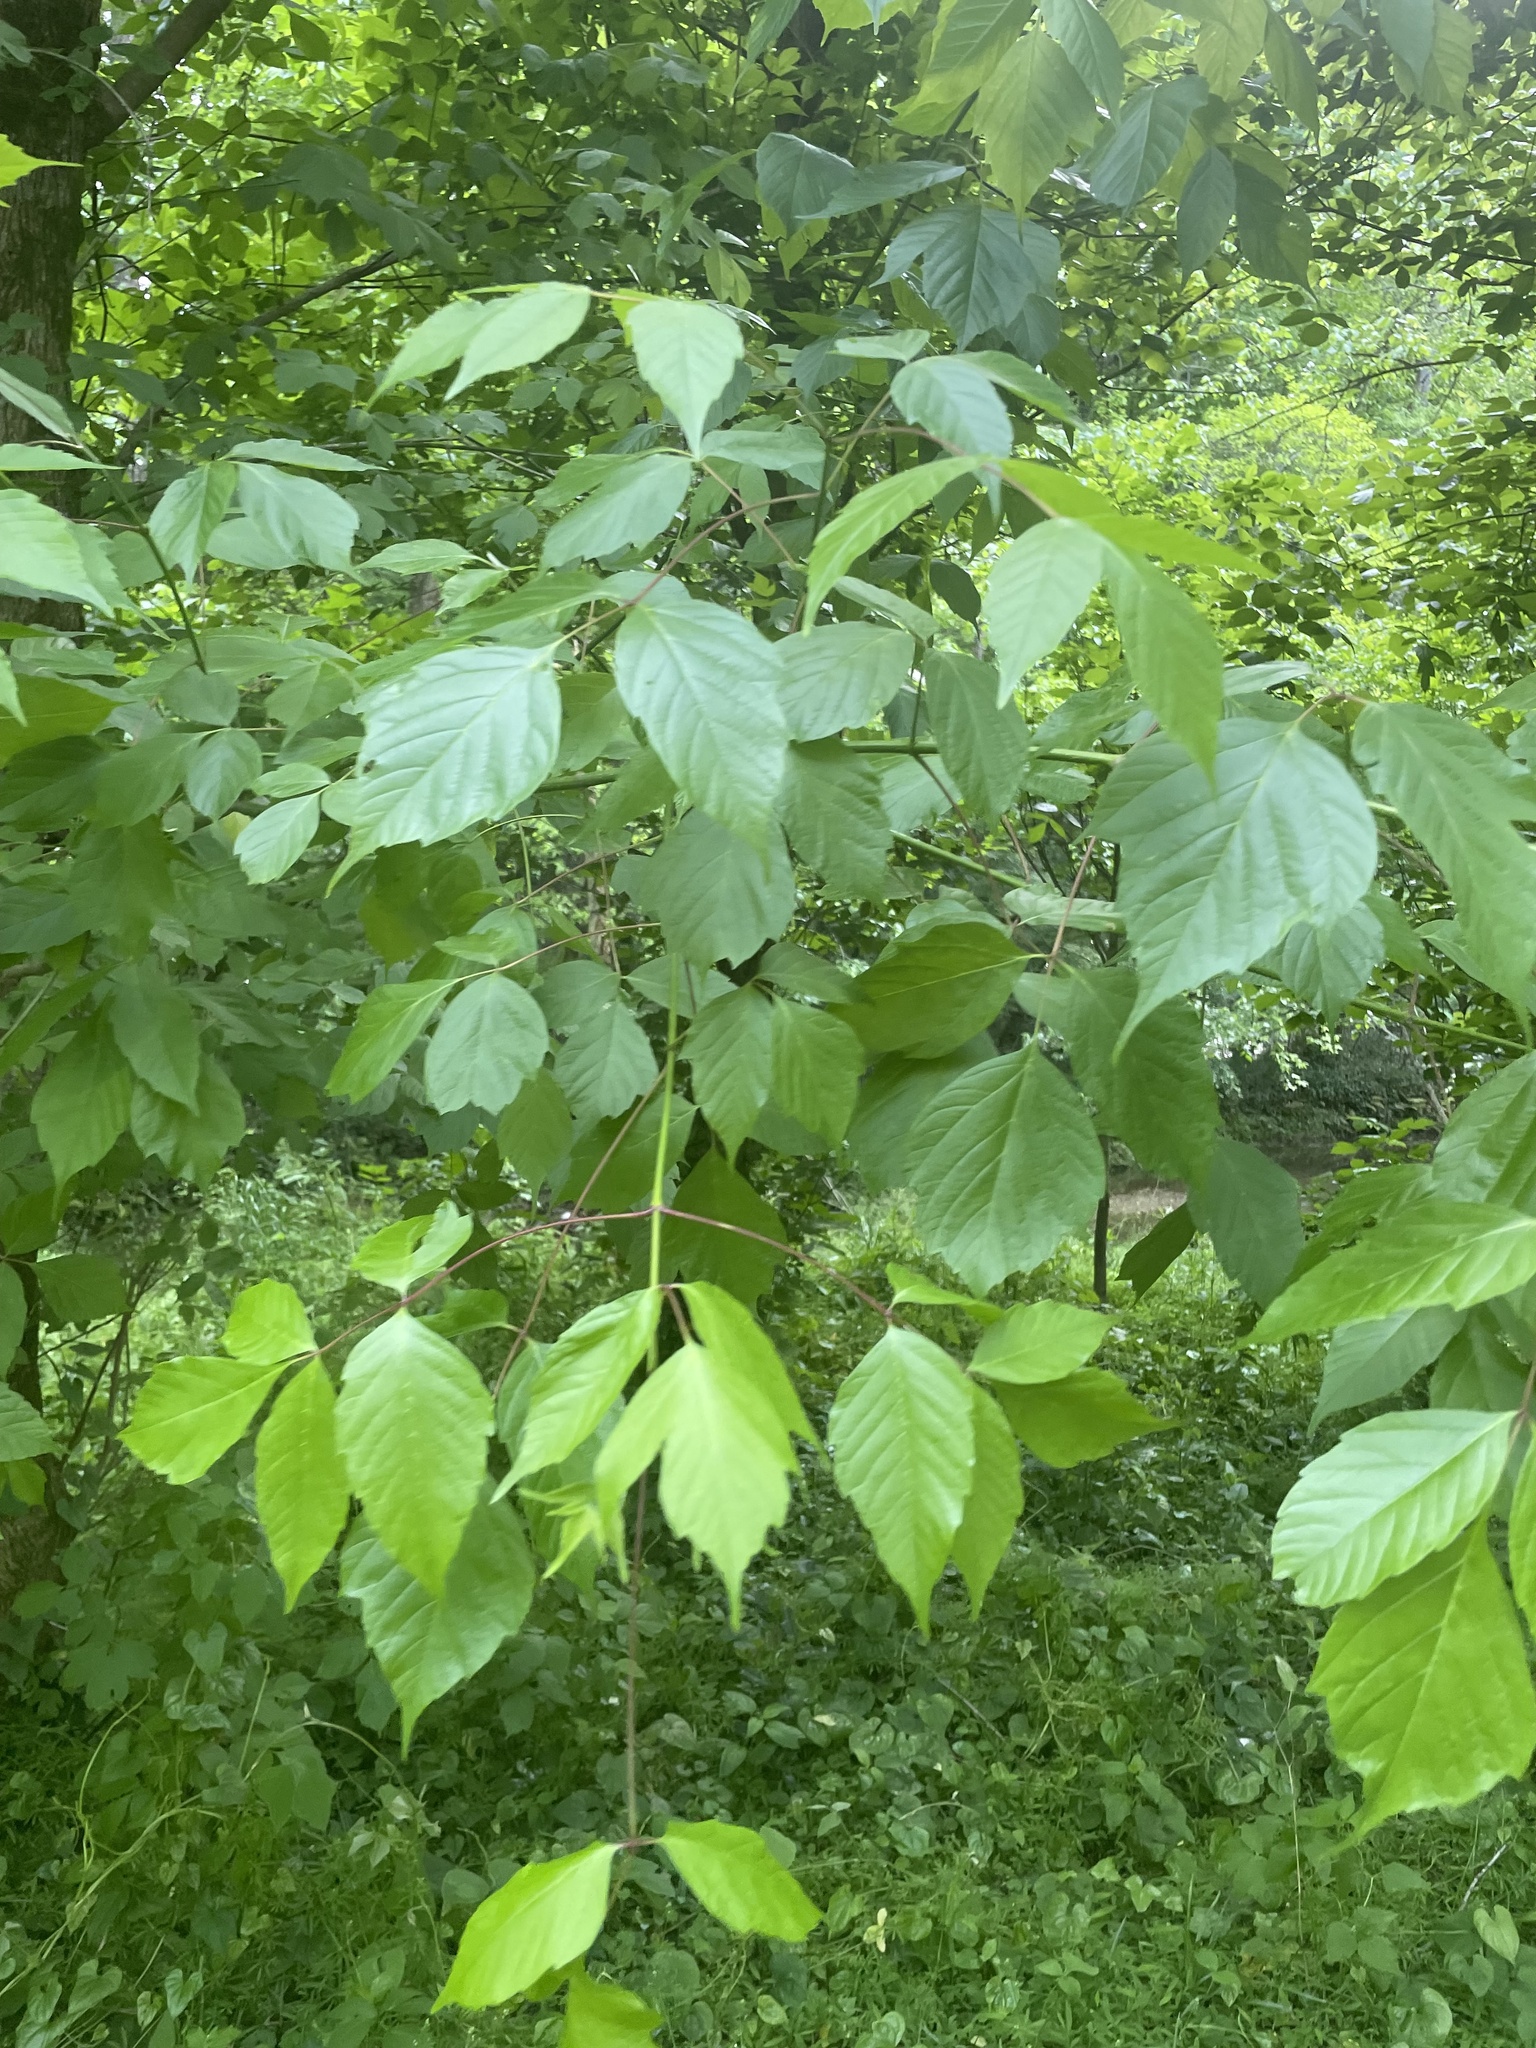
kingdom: Plantae
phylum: Tracheophyta
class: Magnoliopsida
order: Sapindales
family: Sapindaceae
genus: Acer
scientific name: Acer negundo
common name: Ashleaf maple
